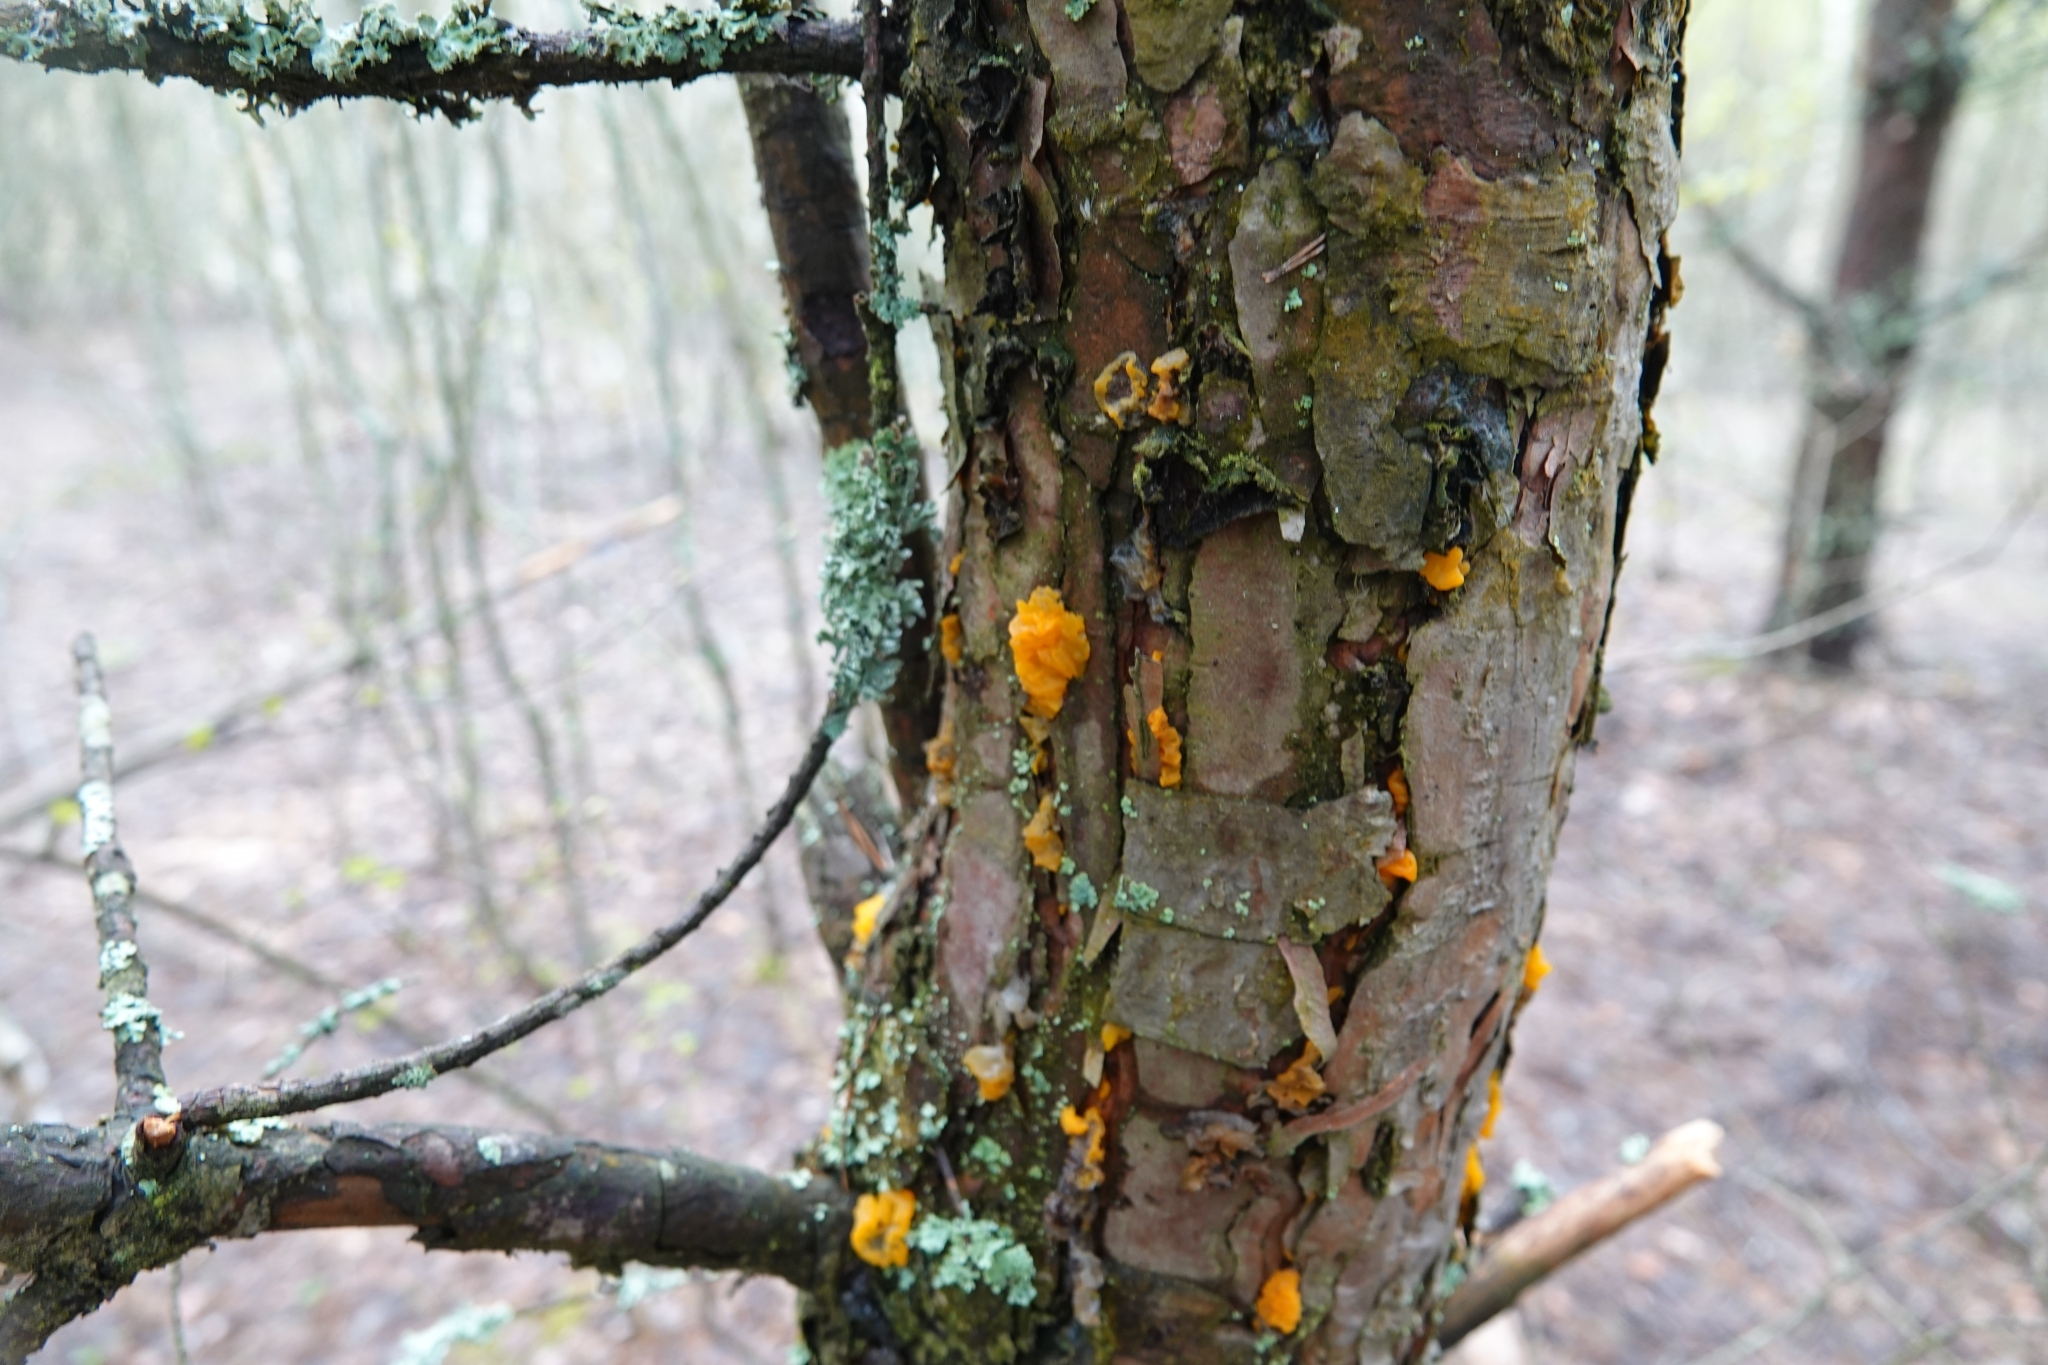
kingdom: Fungi
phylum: Basidiomycota
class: Dacrymycetes
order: Dacrymycetales
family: Dacrymycetaceae
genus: Dacrymyces
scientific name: Dacrymyces chrysospermus
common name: Orange jelly spot
